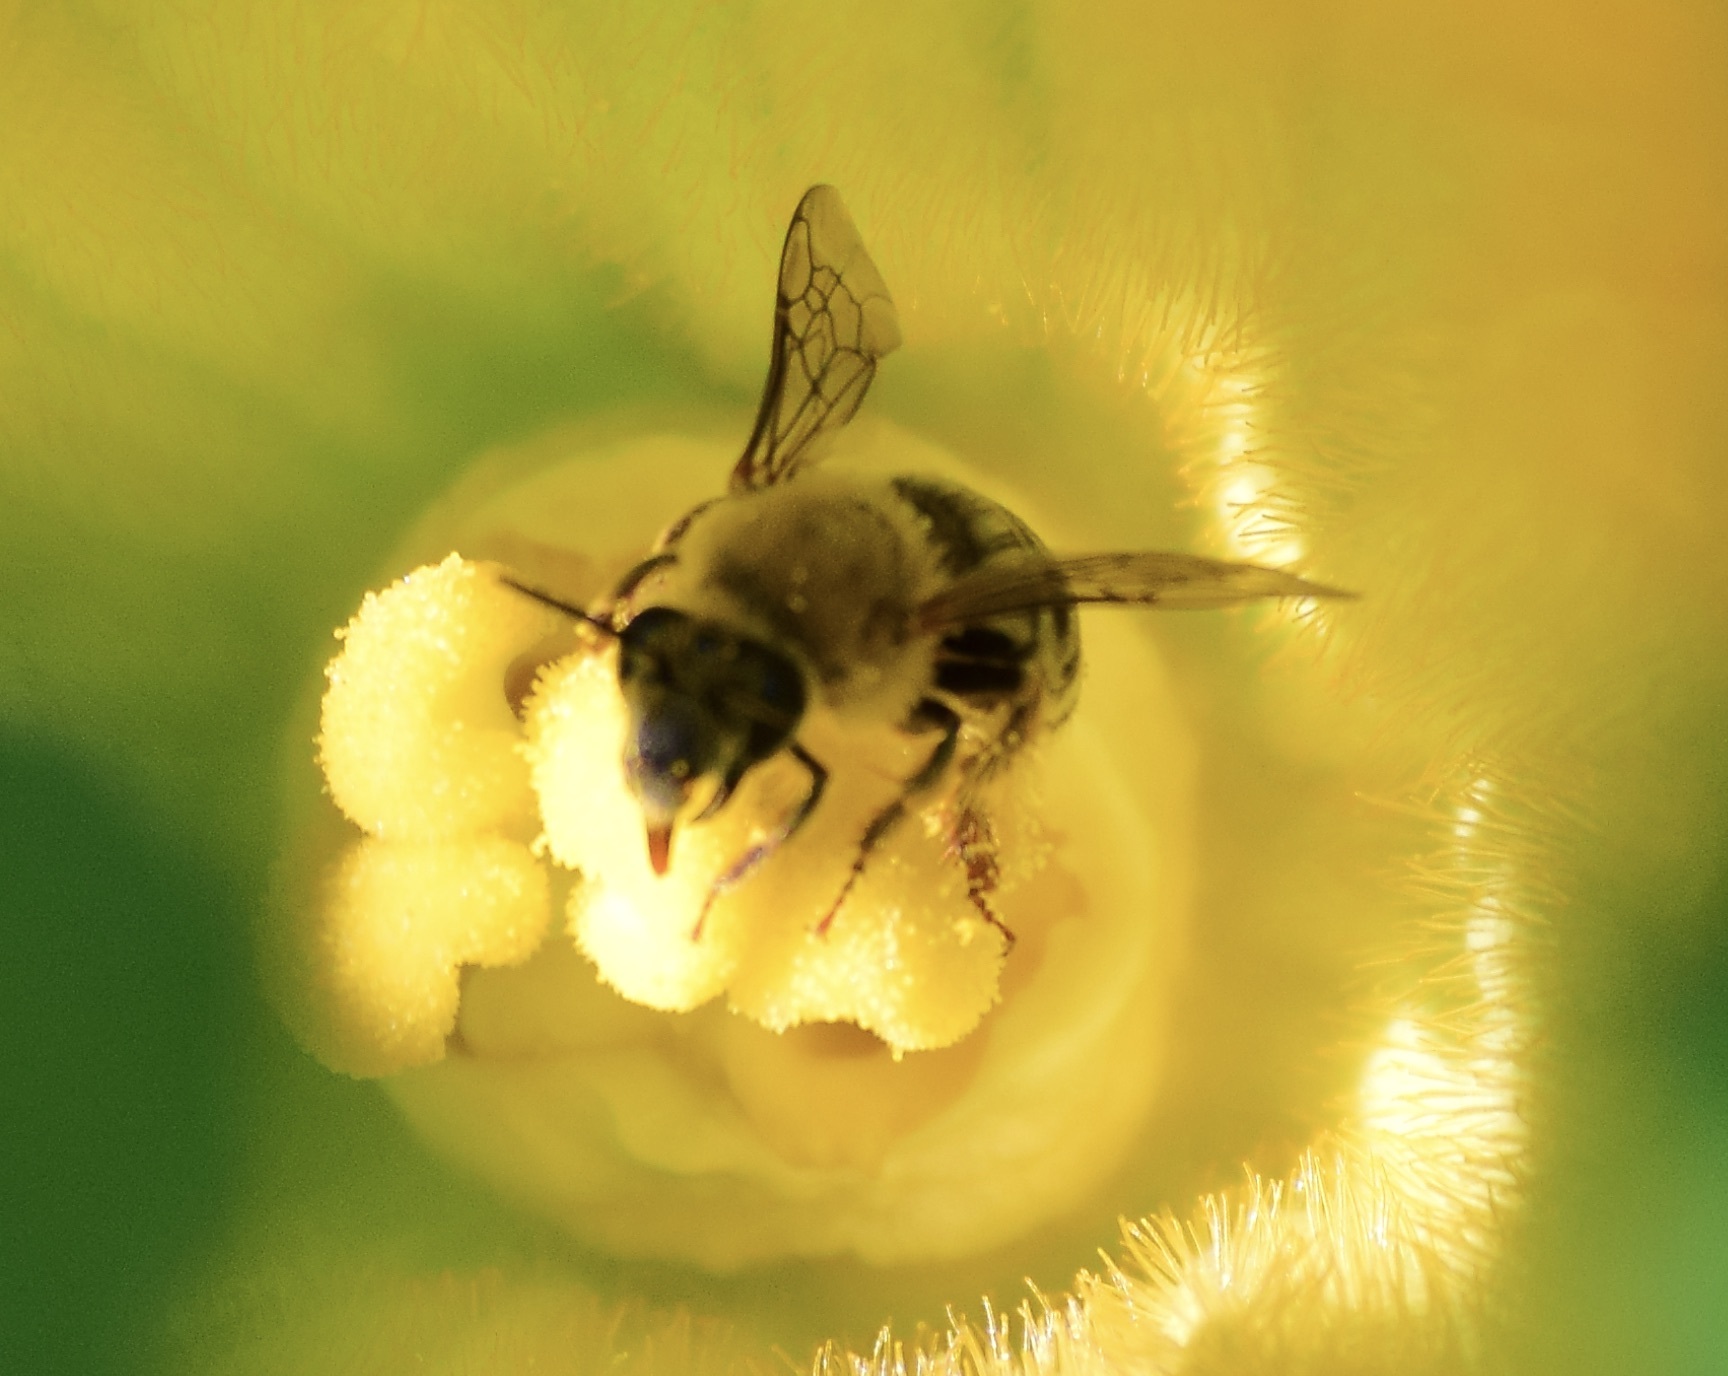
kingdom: Animalia
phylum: Arthropoda
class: Insecta
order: Hymenoptera
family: Apidae
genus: Peponapis
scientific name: Peponapis pruinosa
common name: Pruinose squash bee
